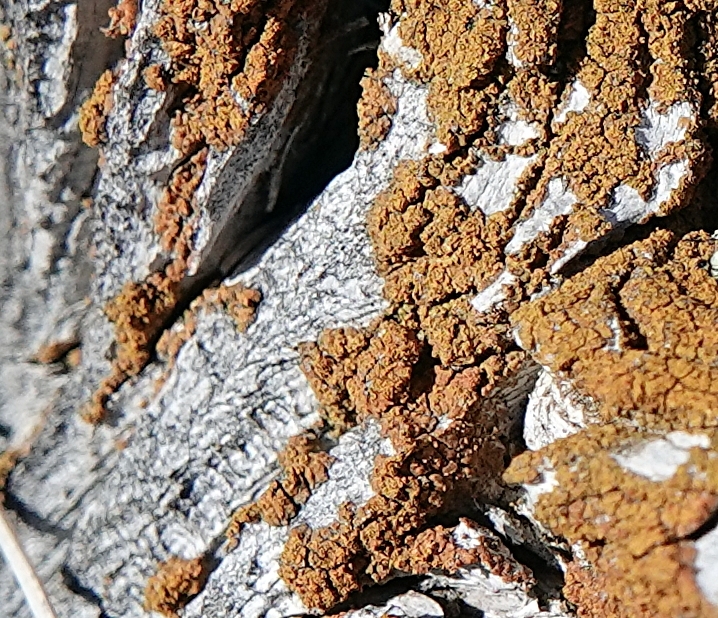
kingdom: Fungi
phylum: Ascomycota
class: Lecanoromycetes
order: Teloschistales
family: Teloschistaceae
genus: Tayloriellina
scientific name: Tayloriellina microphyllina
